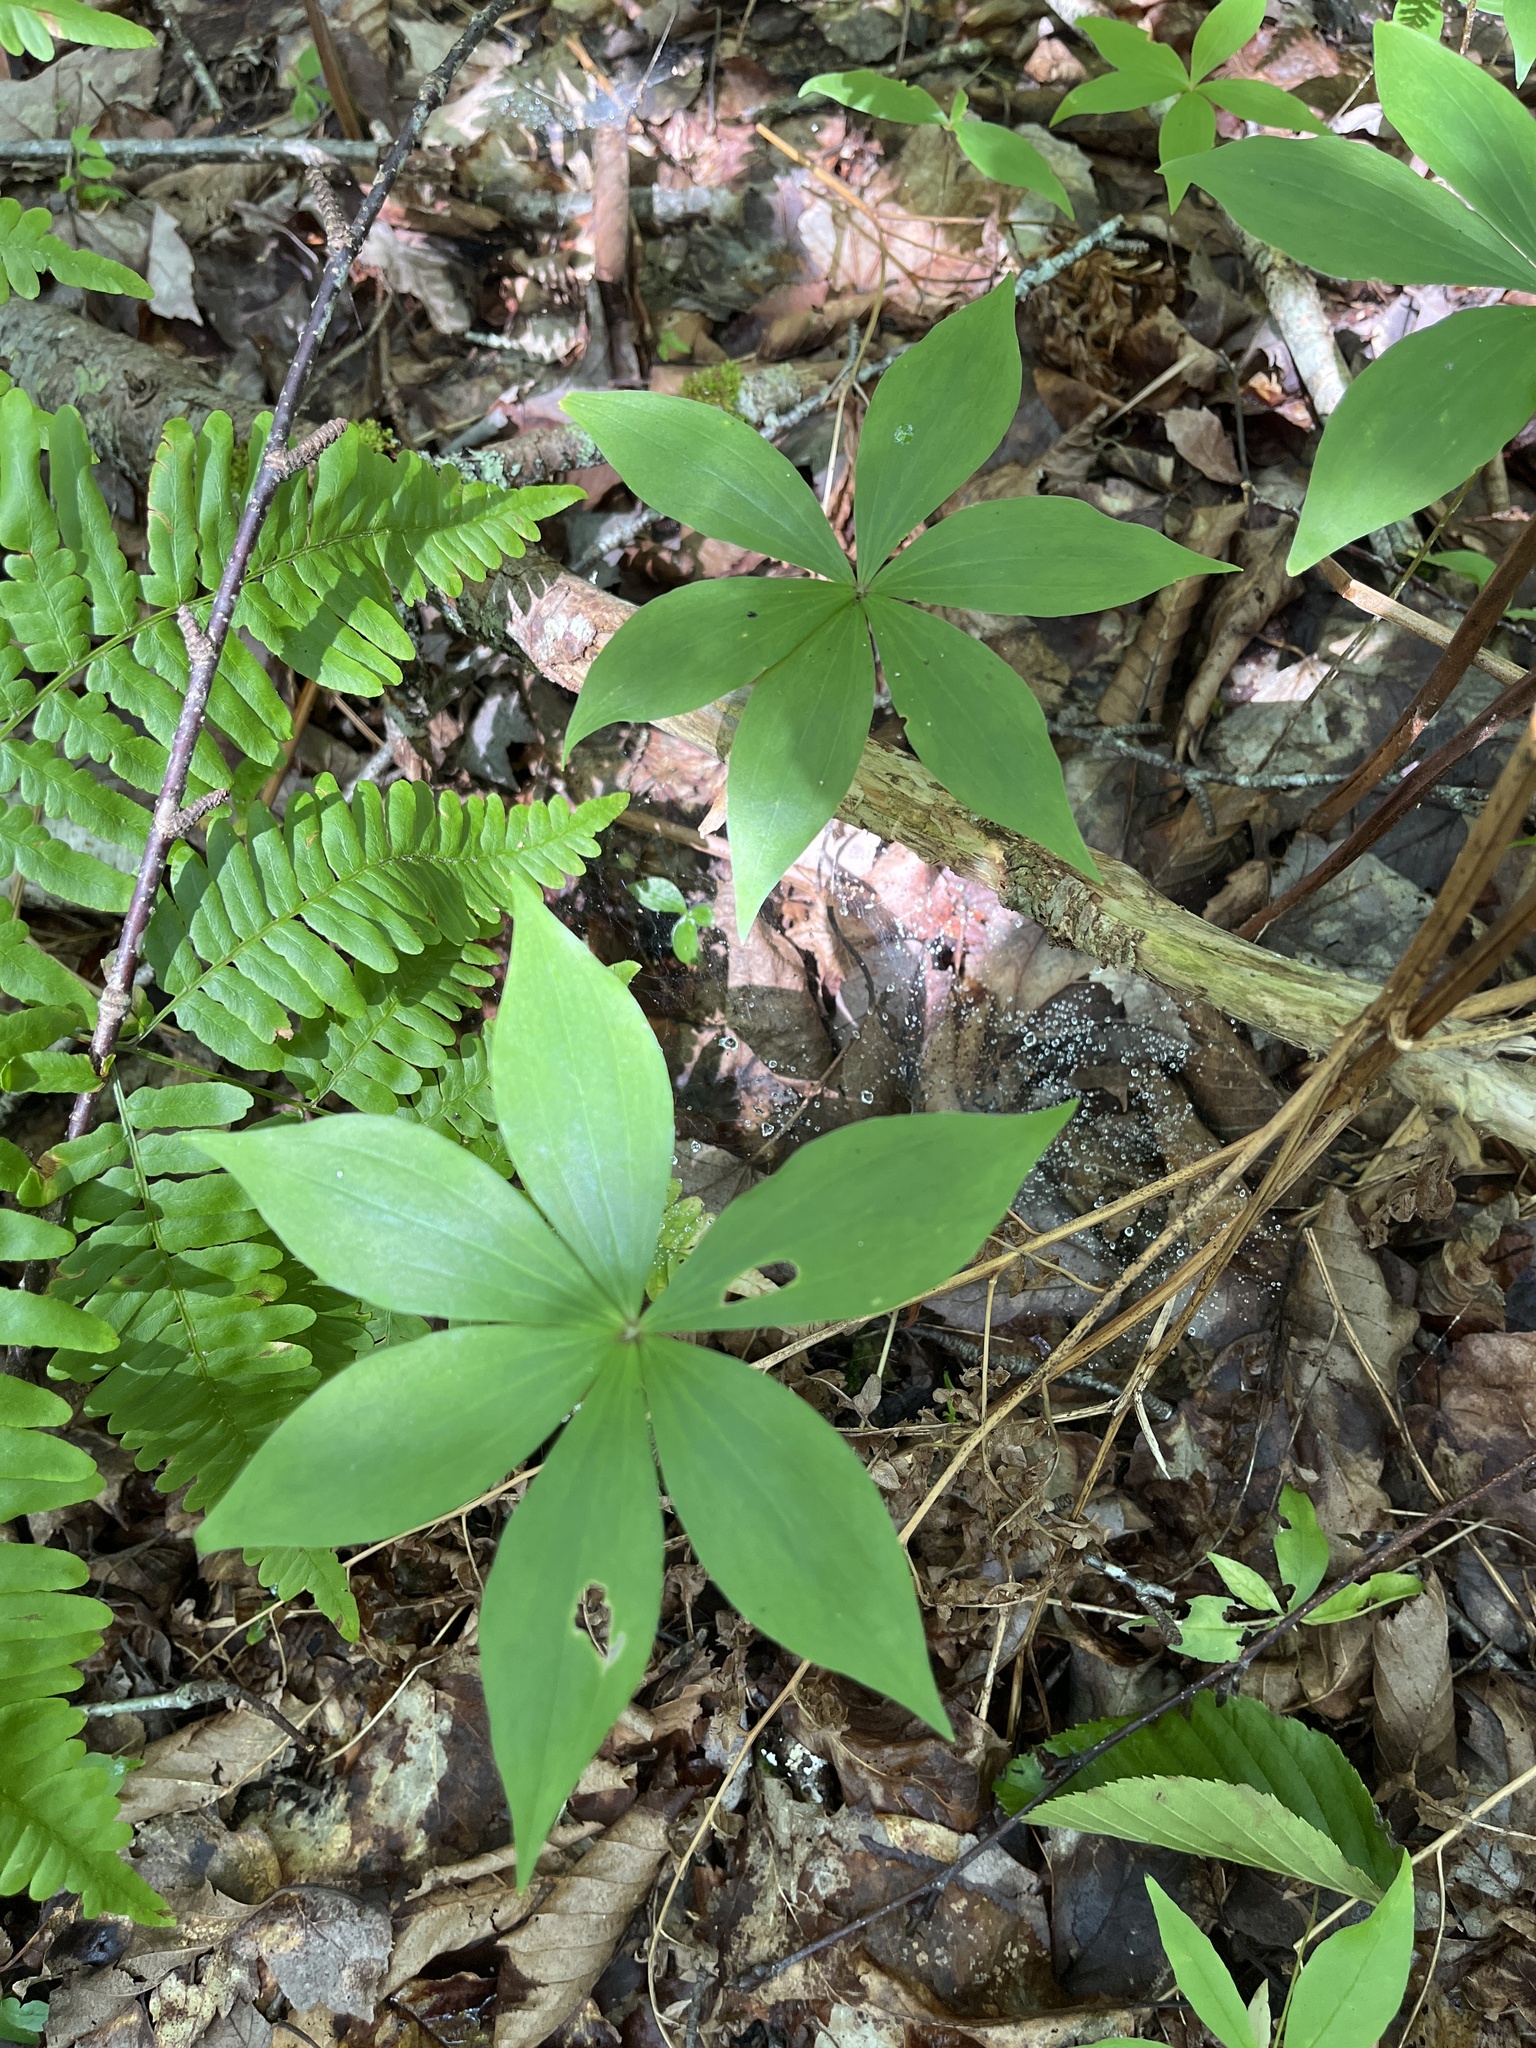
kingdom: Plantae
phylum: Tracheophyta
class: Liliopsida
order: Liliales
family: Liliaceae
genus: Medeola
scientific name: Medeola virginiana
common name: Indian cucumber-root
